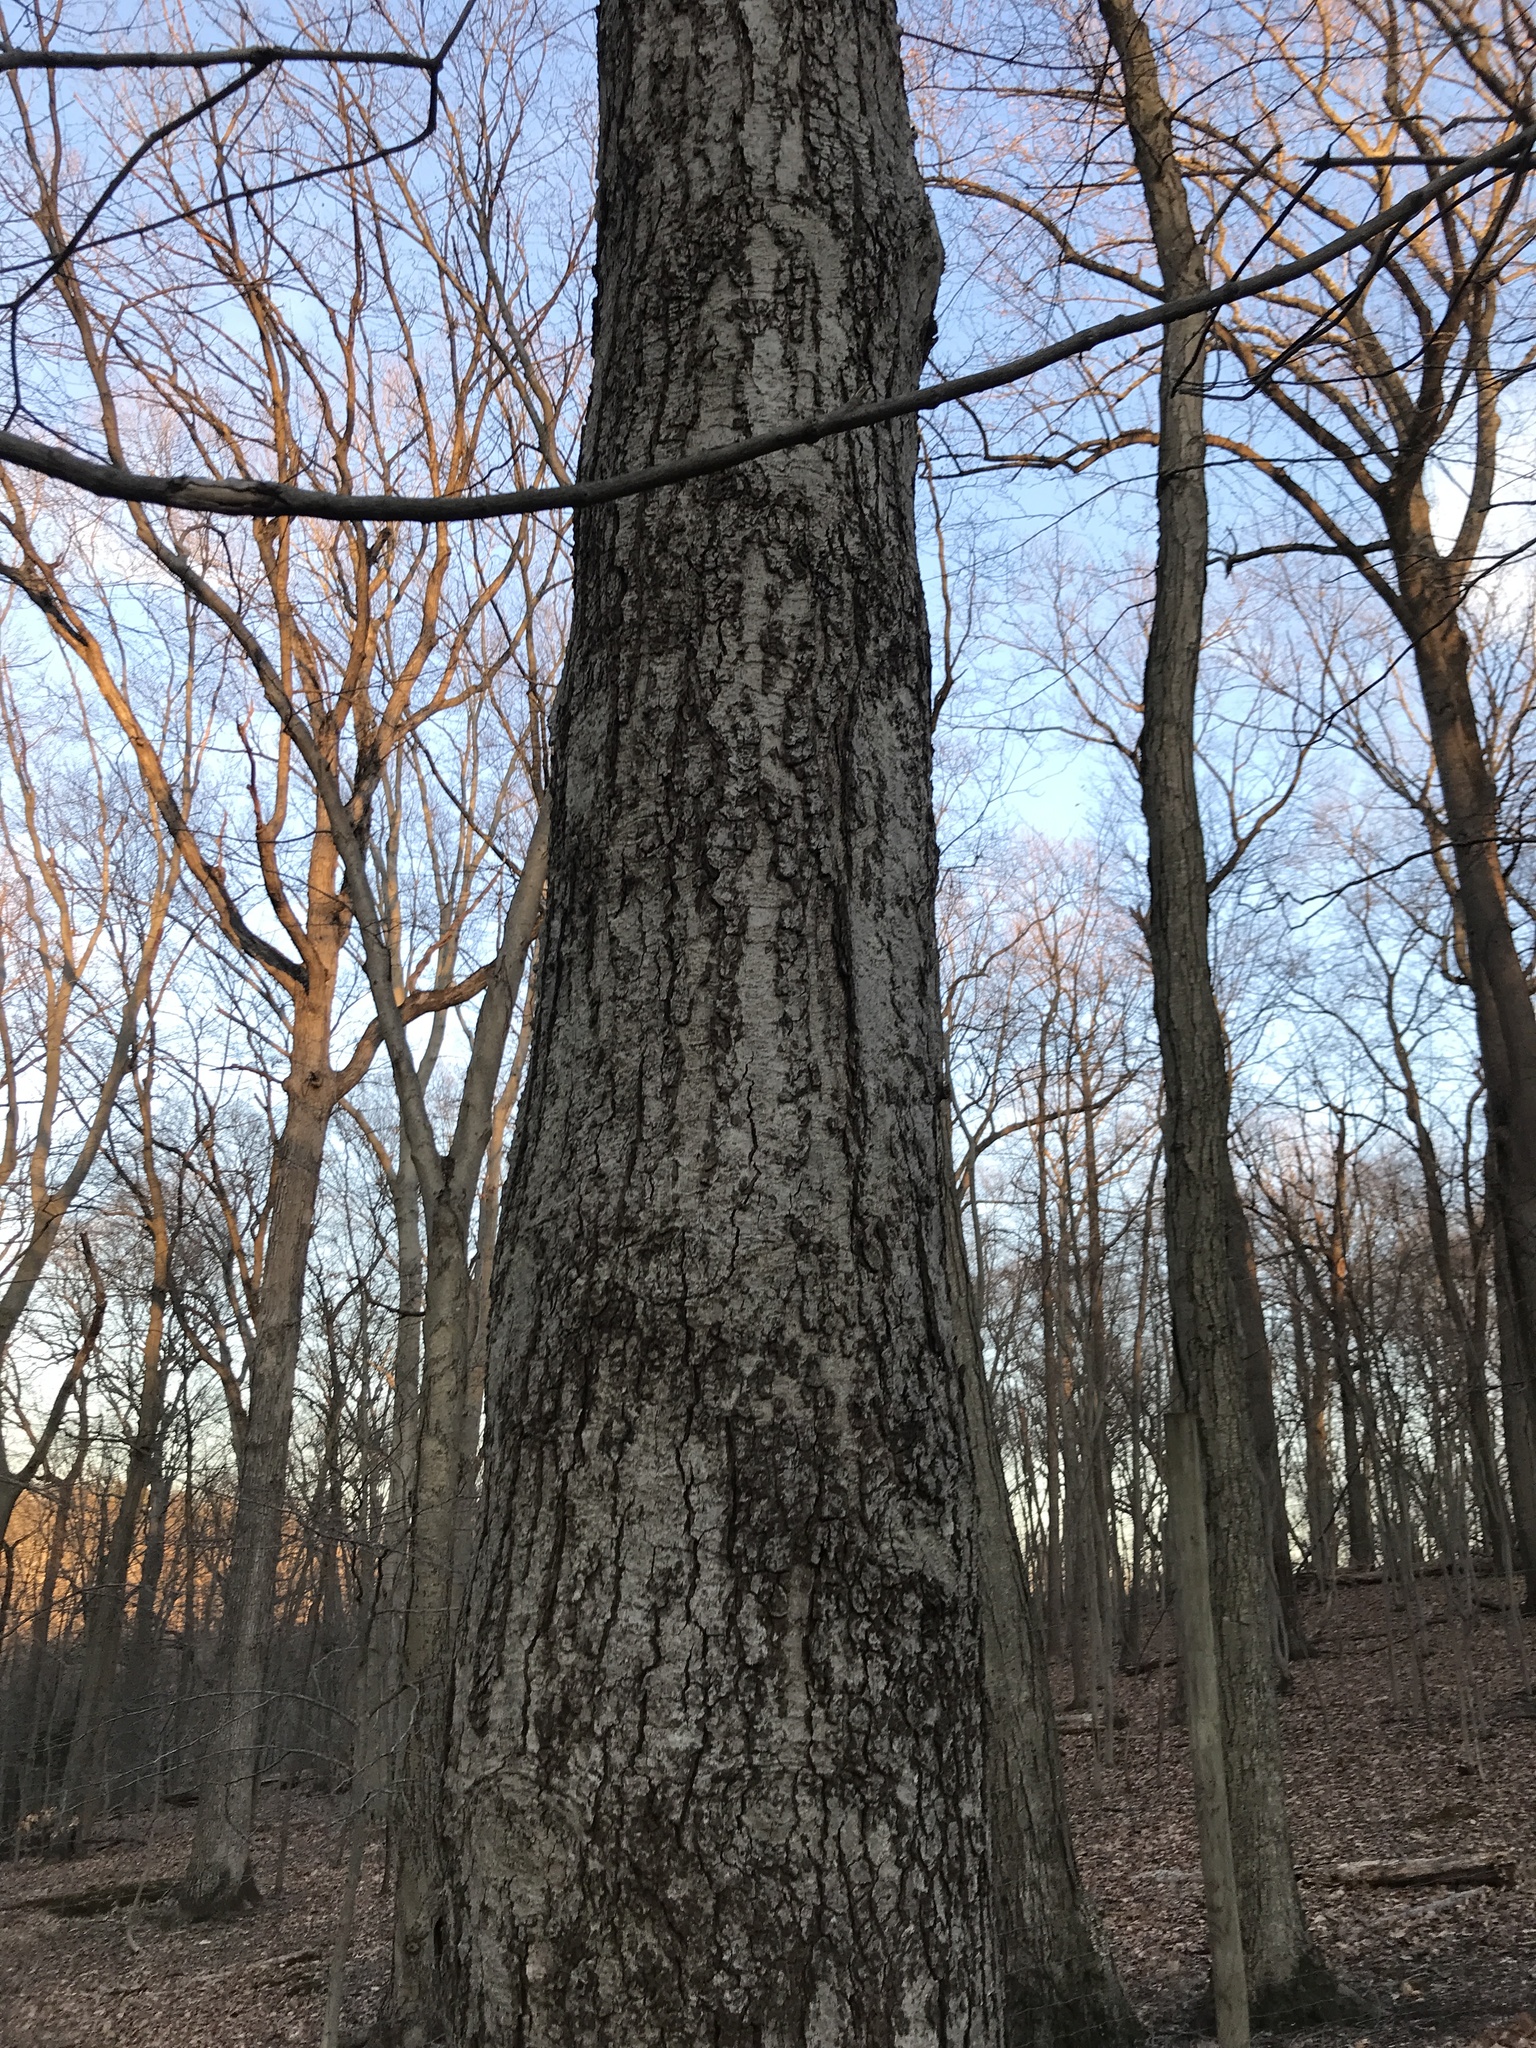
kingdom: Plantae
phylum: Tracheophyta
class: Magnoliopsida
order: Fagales
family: Betulaceae
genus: Betula
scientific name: Betula lenta
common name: Black birch
